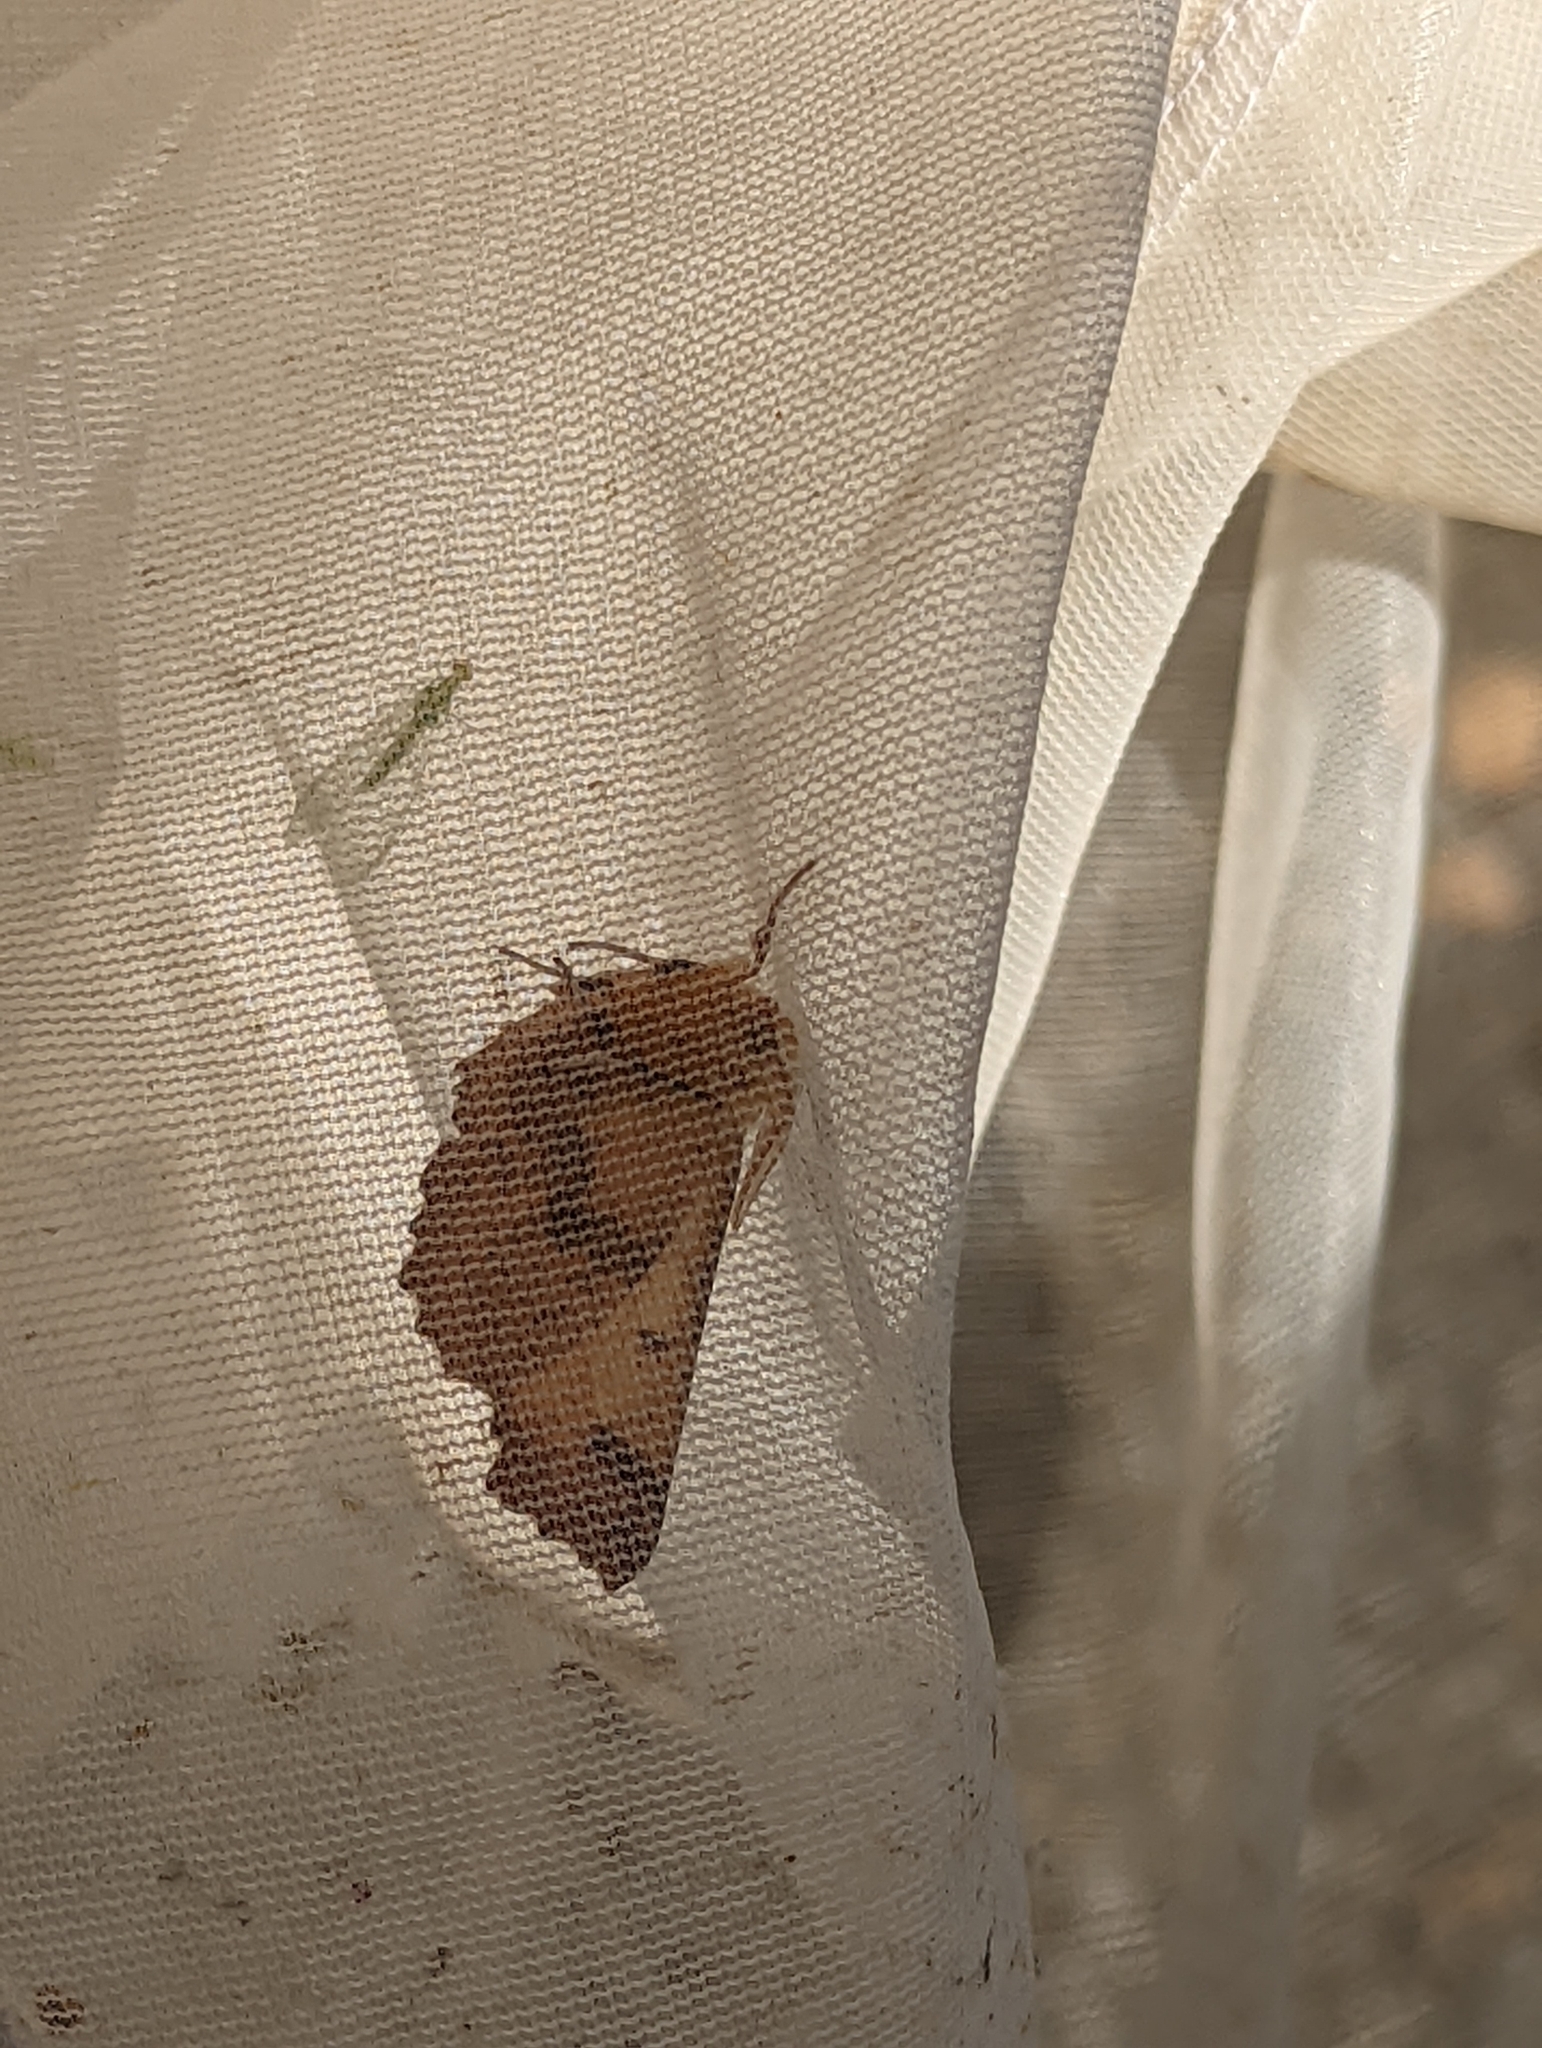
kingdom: Animalia
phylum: Arthropoda
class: Insecta
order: Lepidoptera
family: Geometridae
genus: Ennomos
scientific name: Ennomos autumnaria
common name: Large thorn
